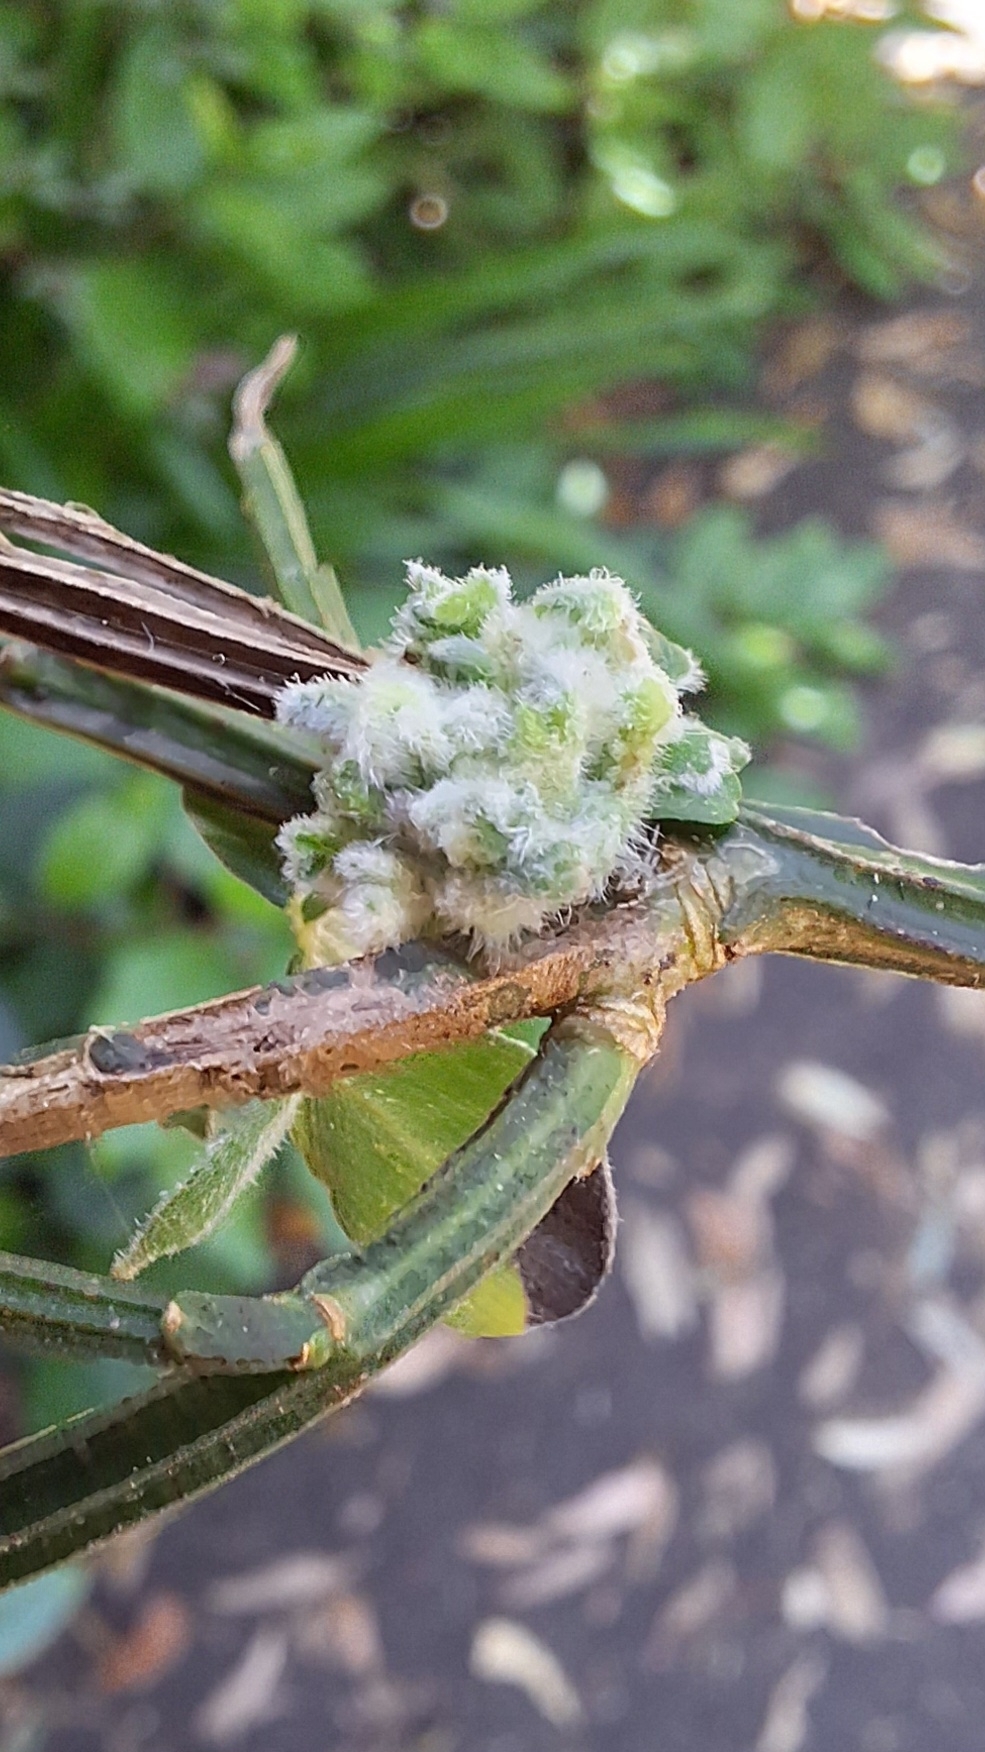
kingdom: Animalia
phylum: Arthropoda
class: Arachnida
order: Trombidiformes
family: Eriophyidae
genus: Aceria
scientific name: Aceria genistae
